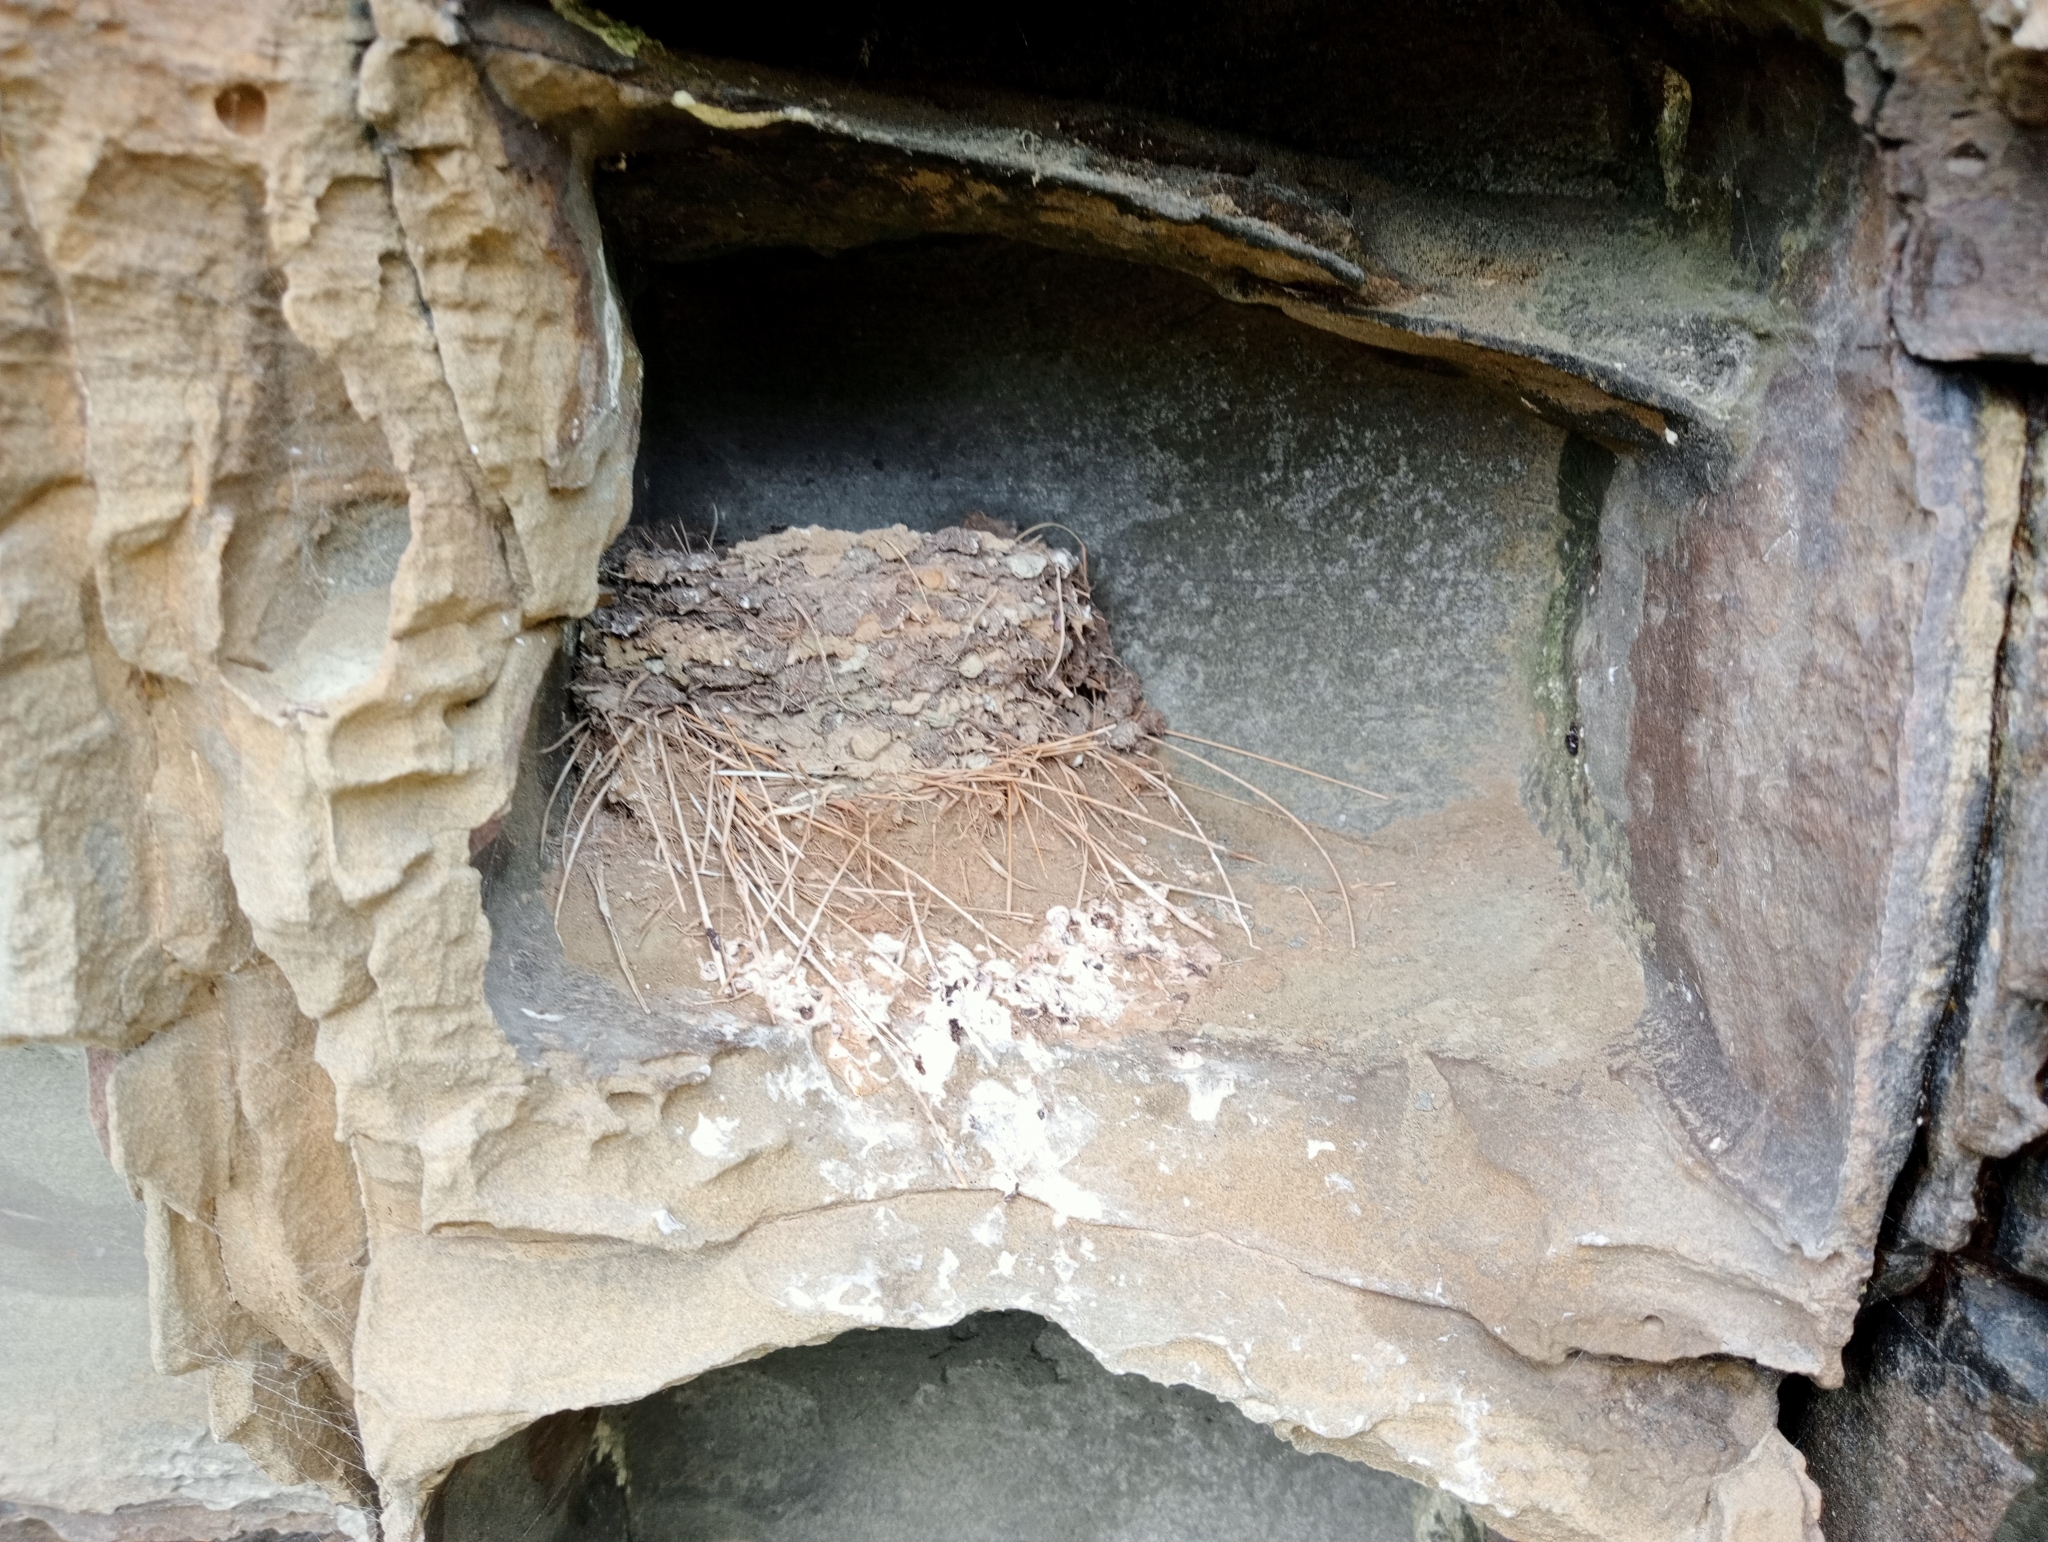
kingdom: Animalia
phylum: Chordata
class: Aves
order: Passeriformes
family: Hirundinidae
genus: Hirundo
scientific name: Hirundo neoxena
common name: Welcome swallow
